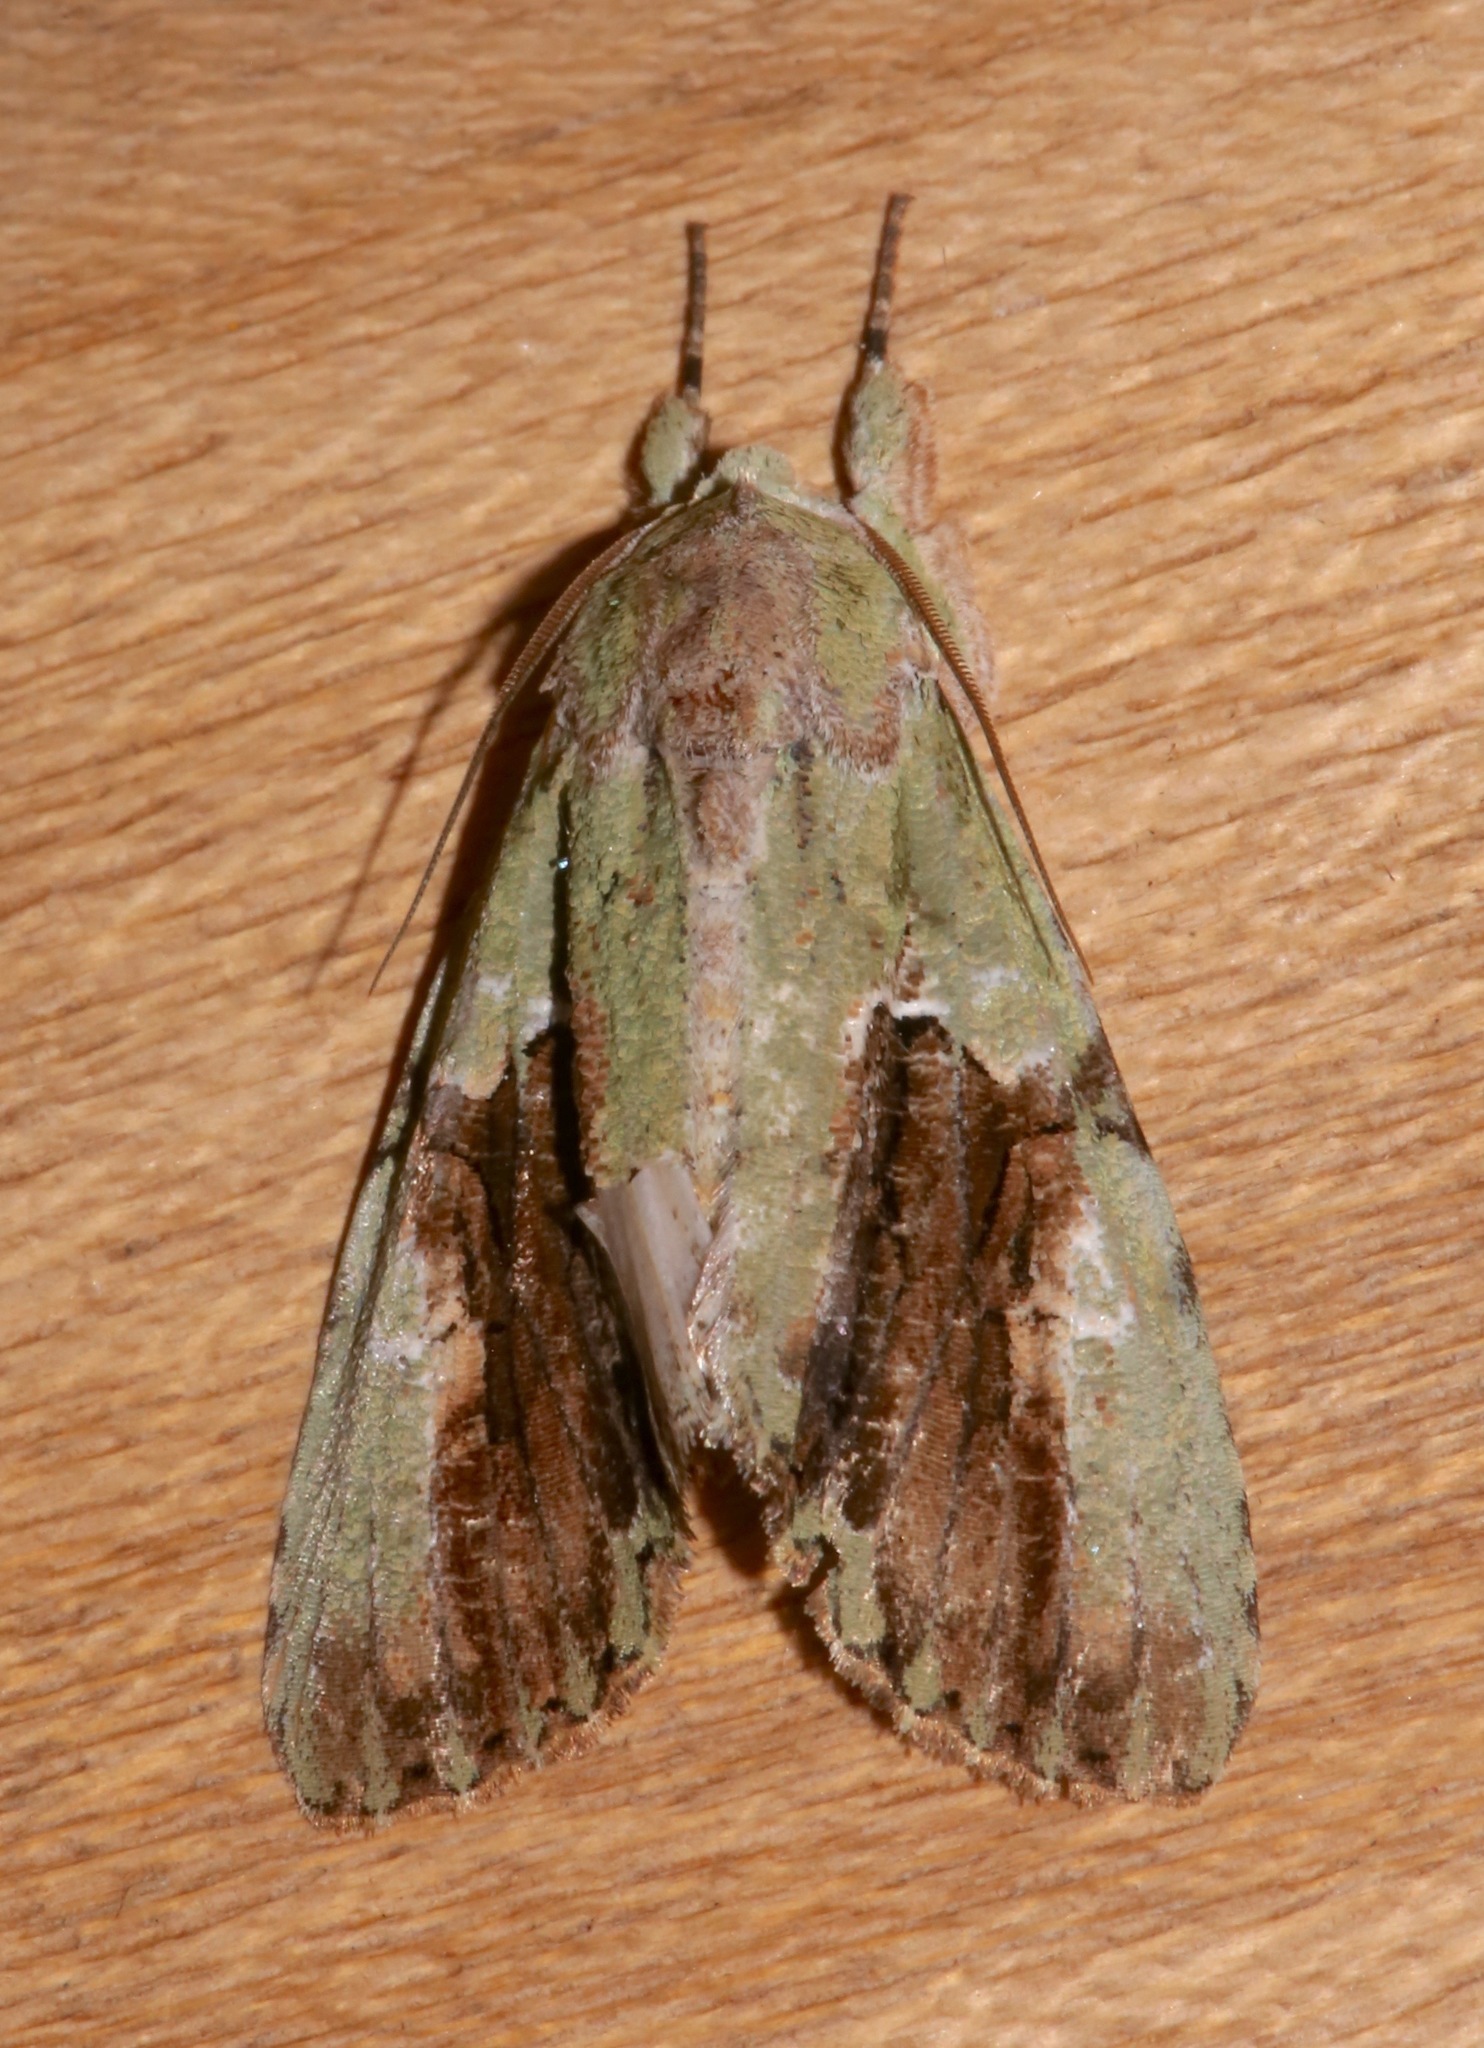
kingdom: Animalia
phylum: Arthropoda
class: Insecta
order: Lepidoptera
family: Noctuidae
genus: Stauropides
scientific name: Stauropides superba
